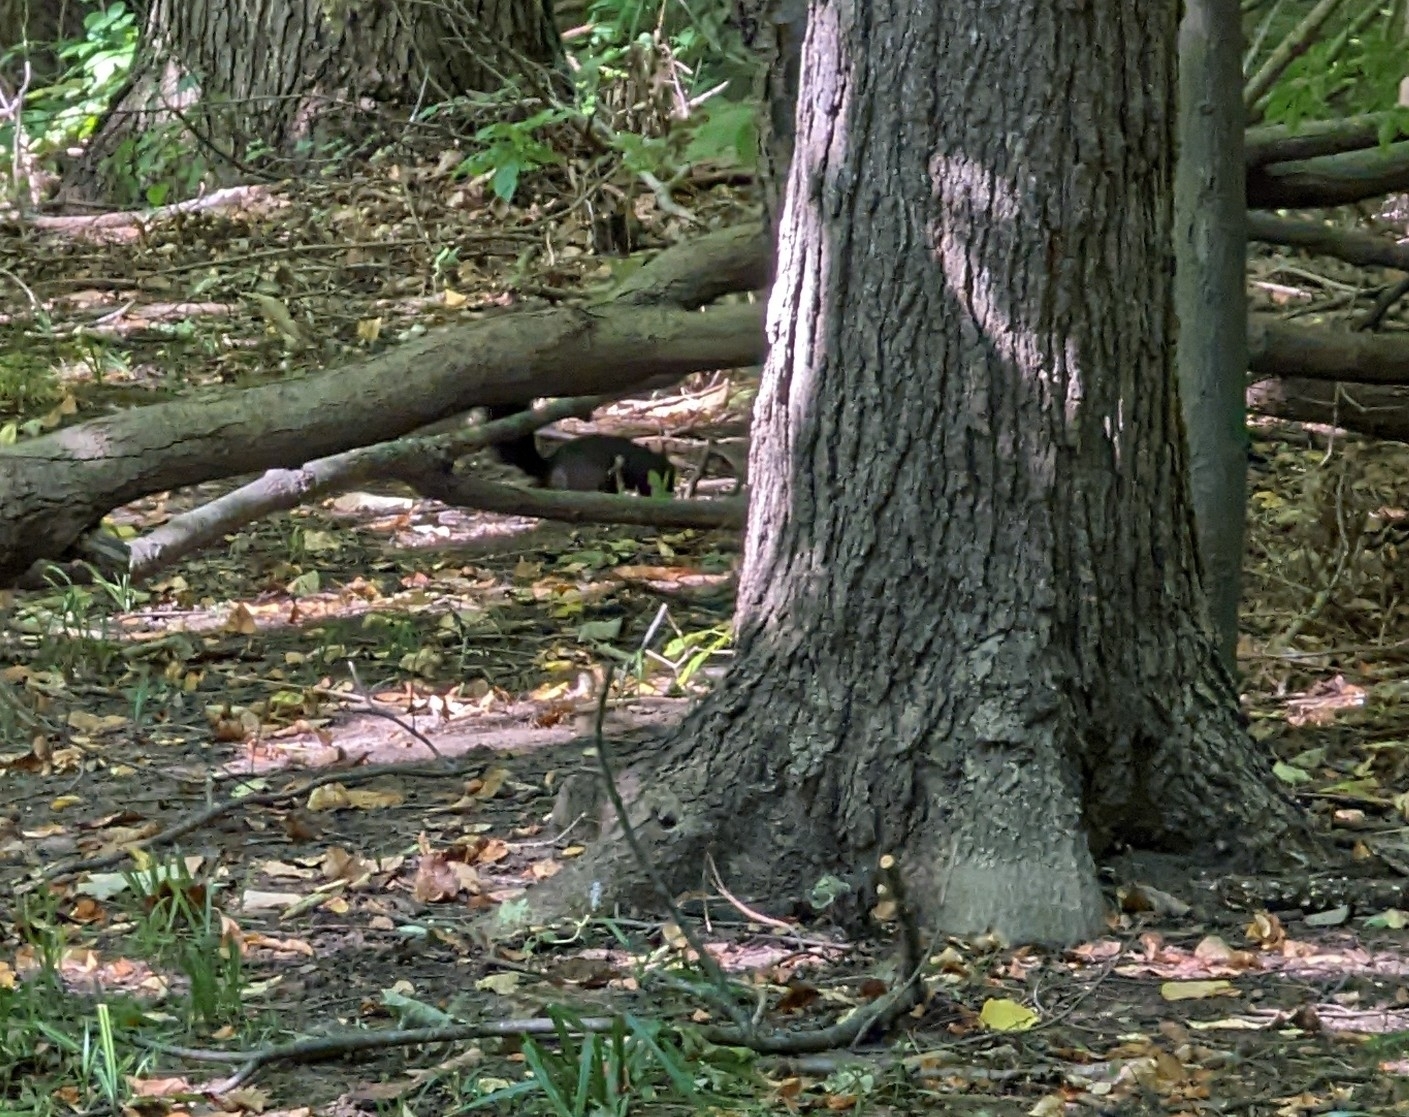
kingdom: Animalia
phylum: Chordata
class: Mammalia
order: Rodentia
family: Sciuridae
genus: Sciurus
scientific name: Sciurus carolinensis
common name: Eastern gray squirrel
